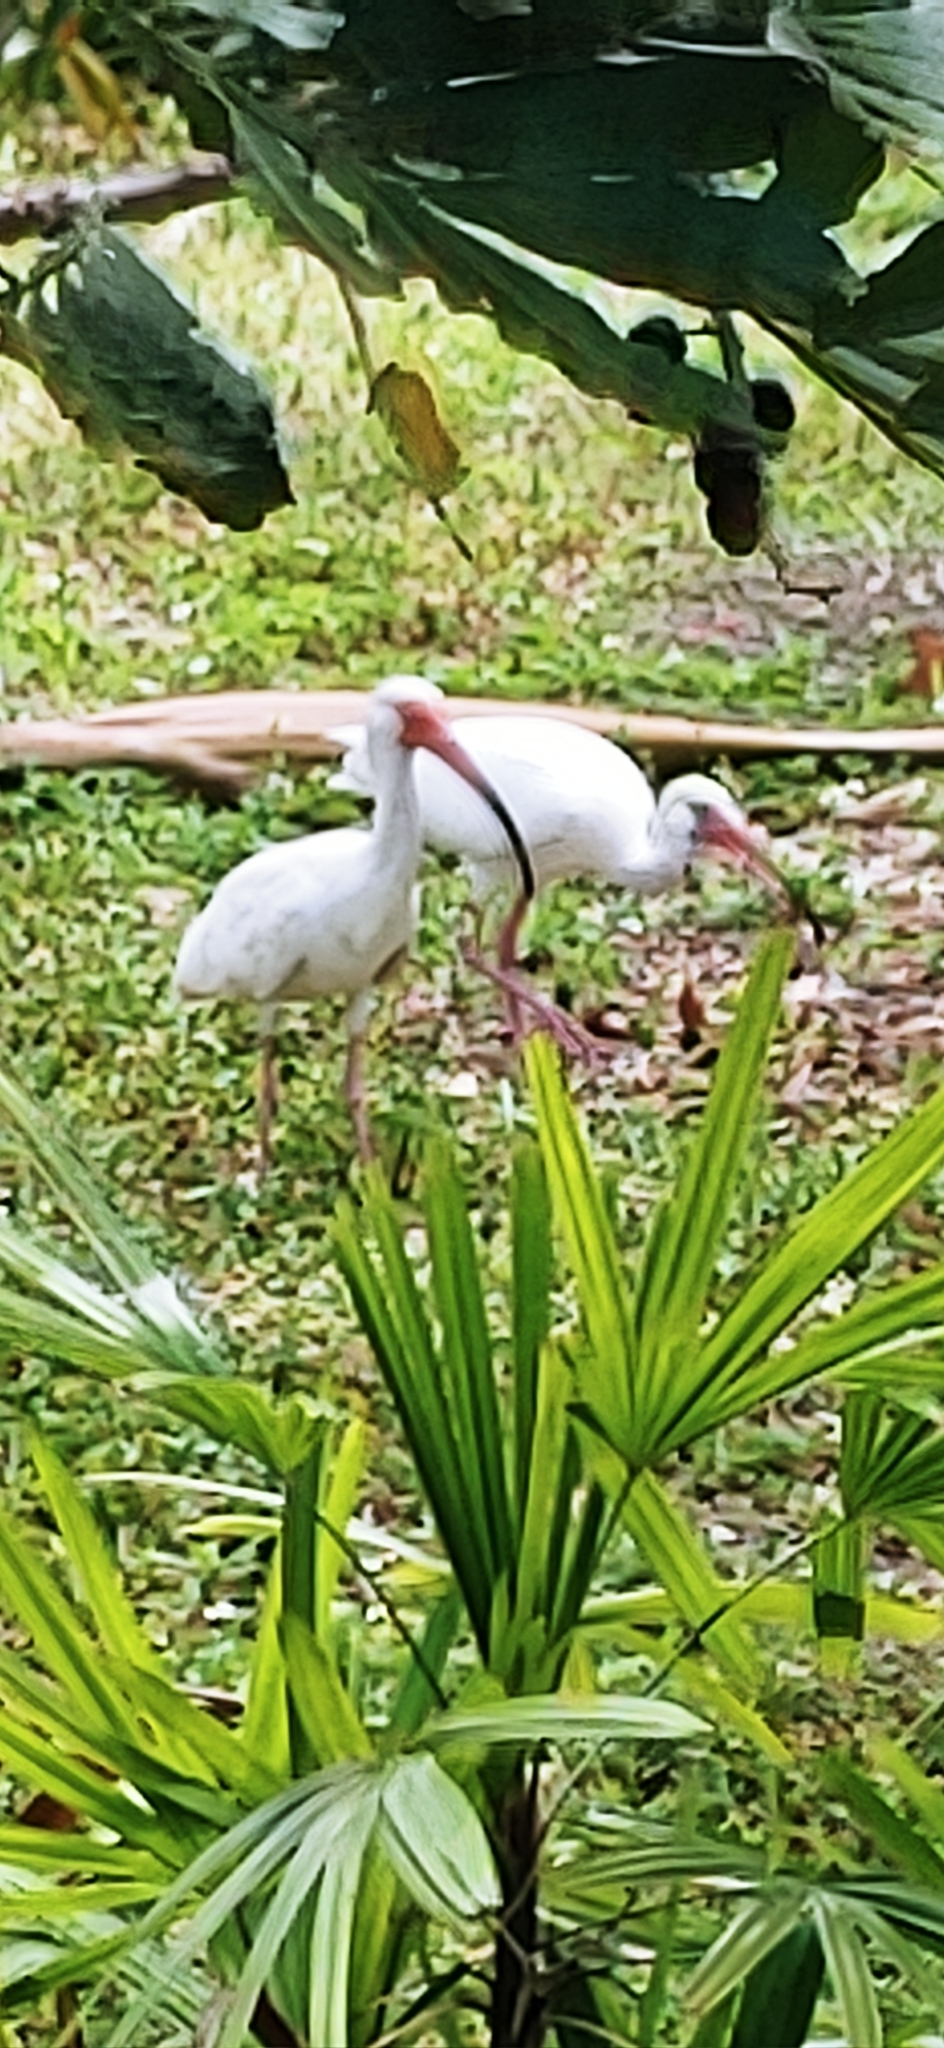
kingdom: Animalia
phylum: Chordata
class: Aves
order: Pelecaniformes
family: Threskiornithidae
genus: Eudocimus
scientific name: Eudocimus albus
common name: White ibis
